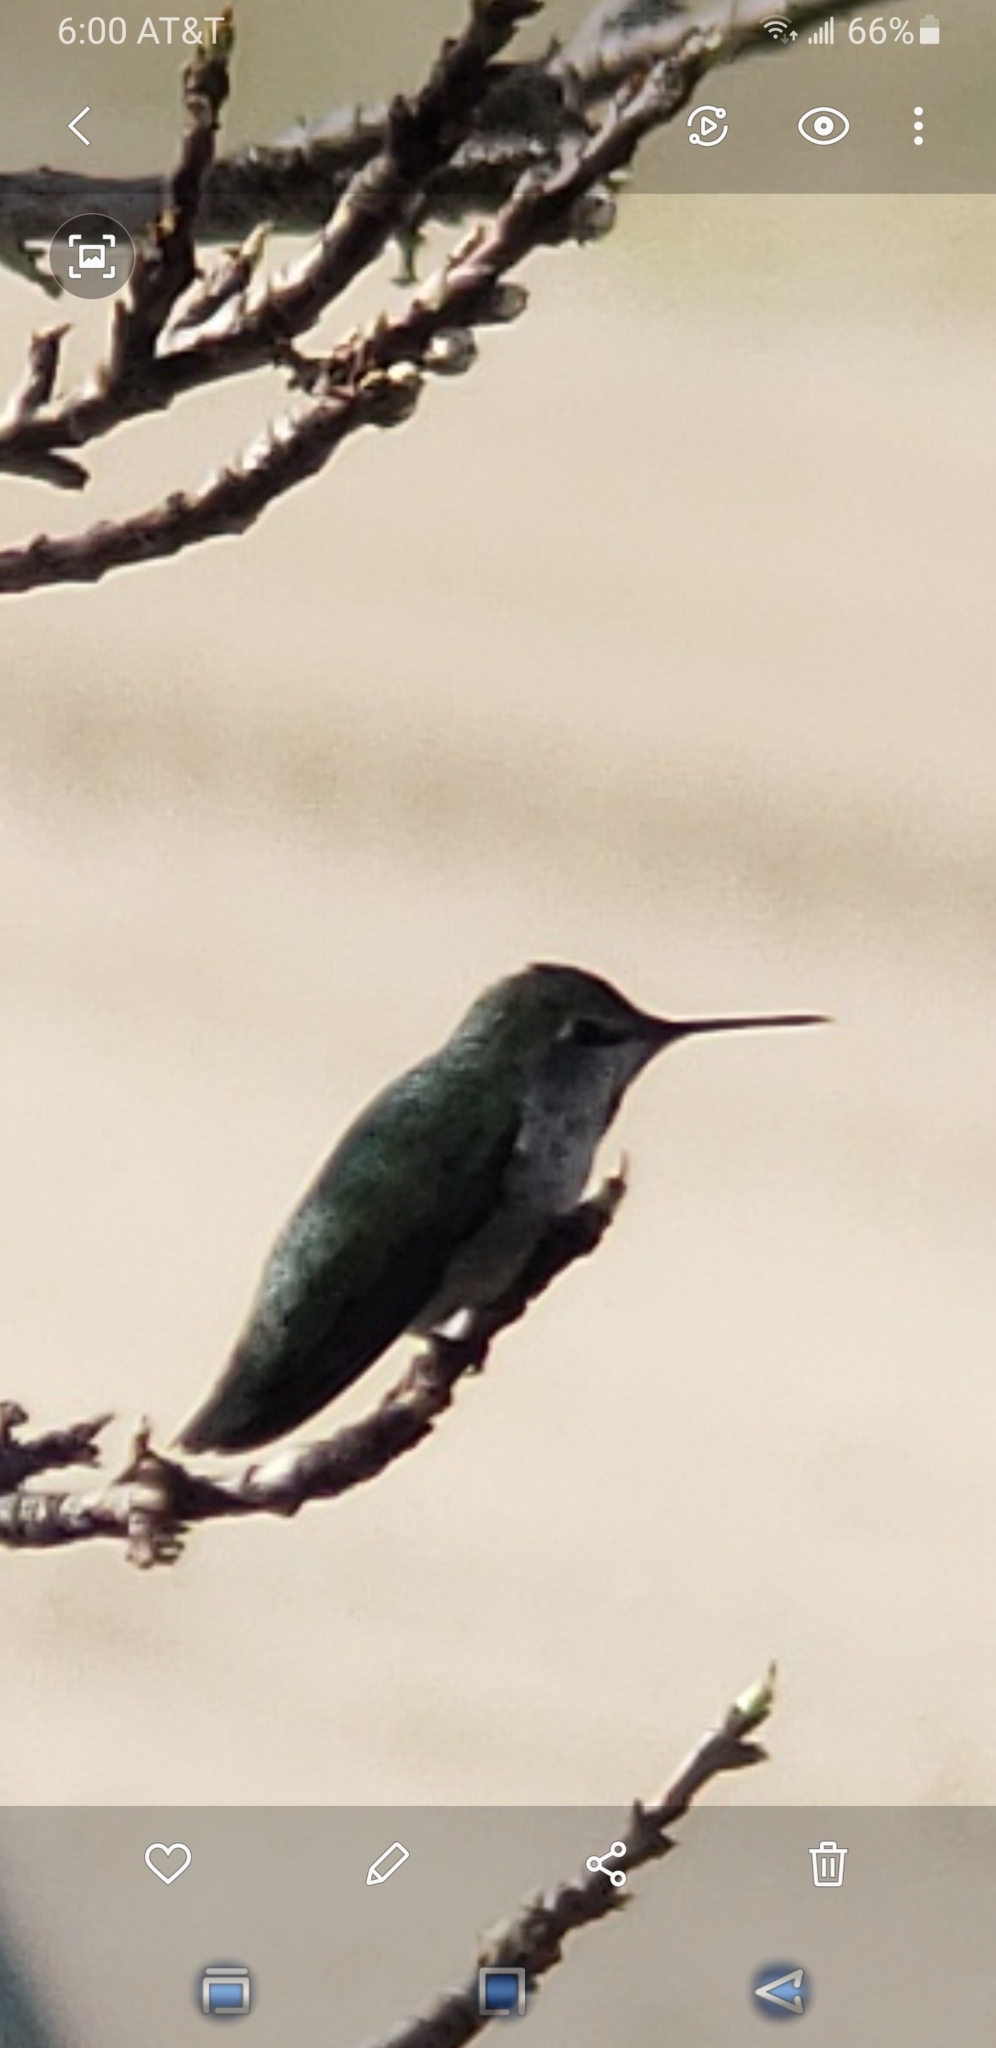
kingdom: Animalia
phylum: Chordata
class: Aves
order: Apodiformes
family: Trochilidae
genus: Calypte
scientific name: Calypte anna
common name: Anna's hummingbird
